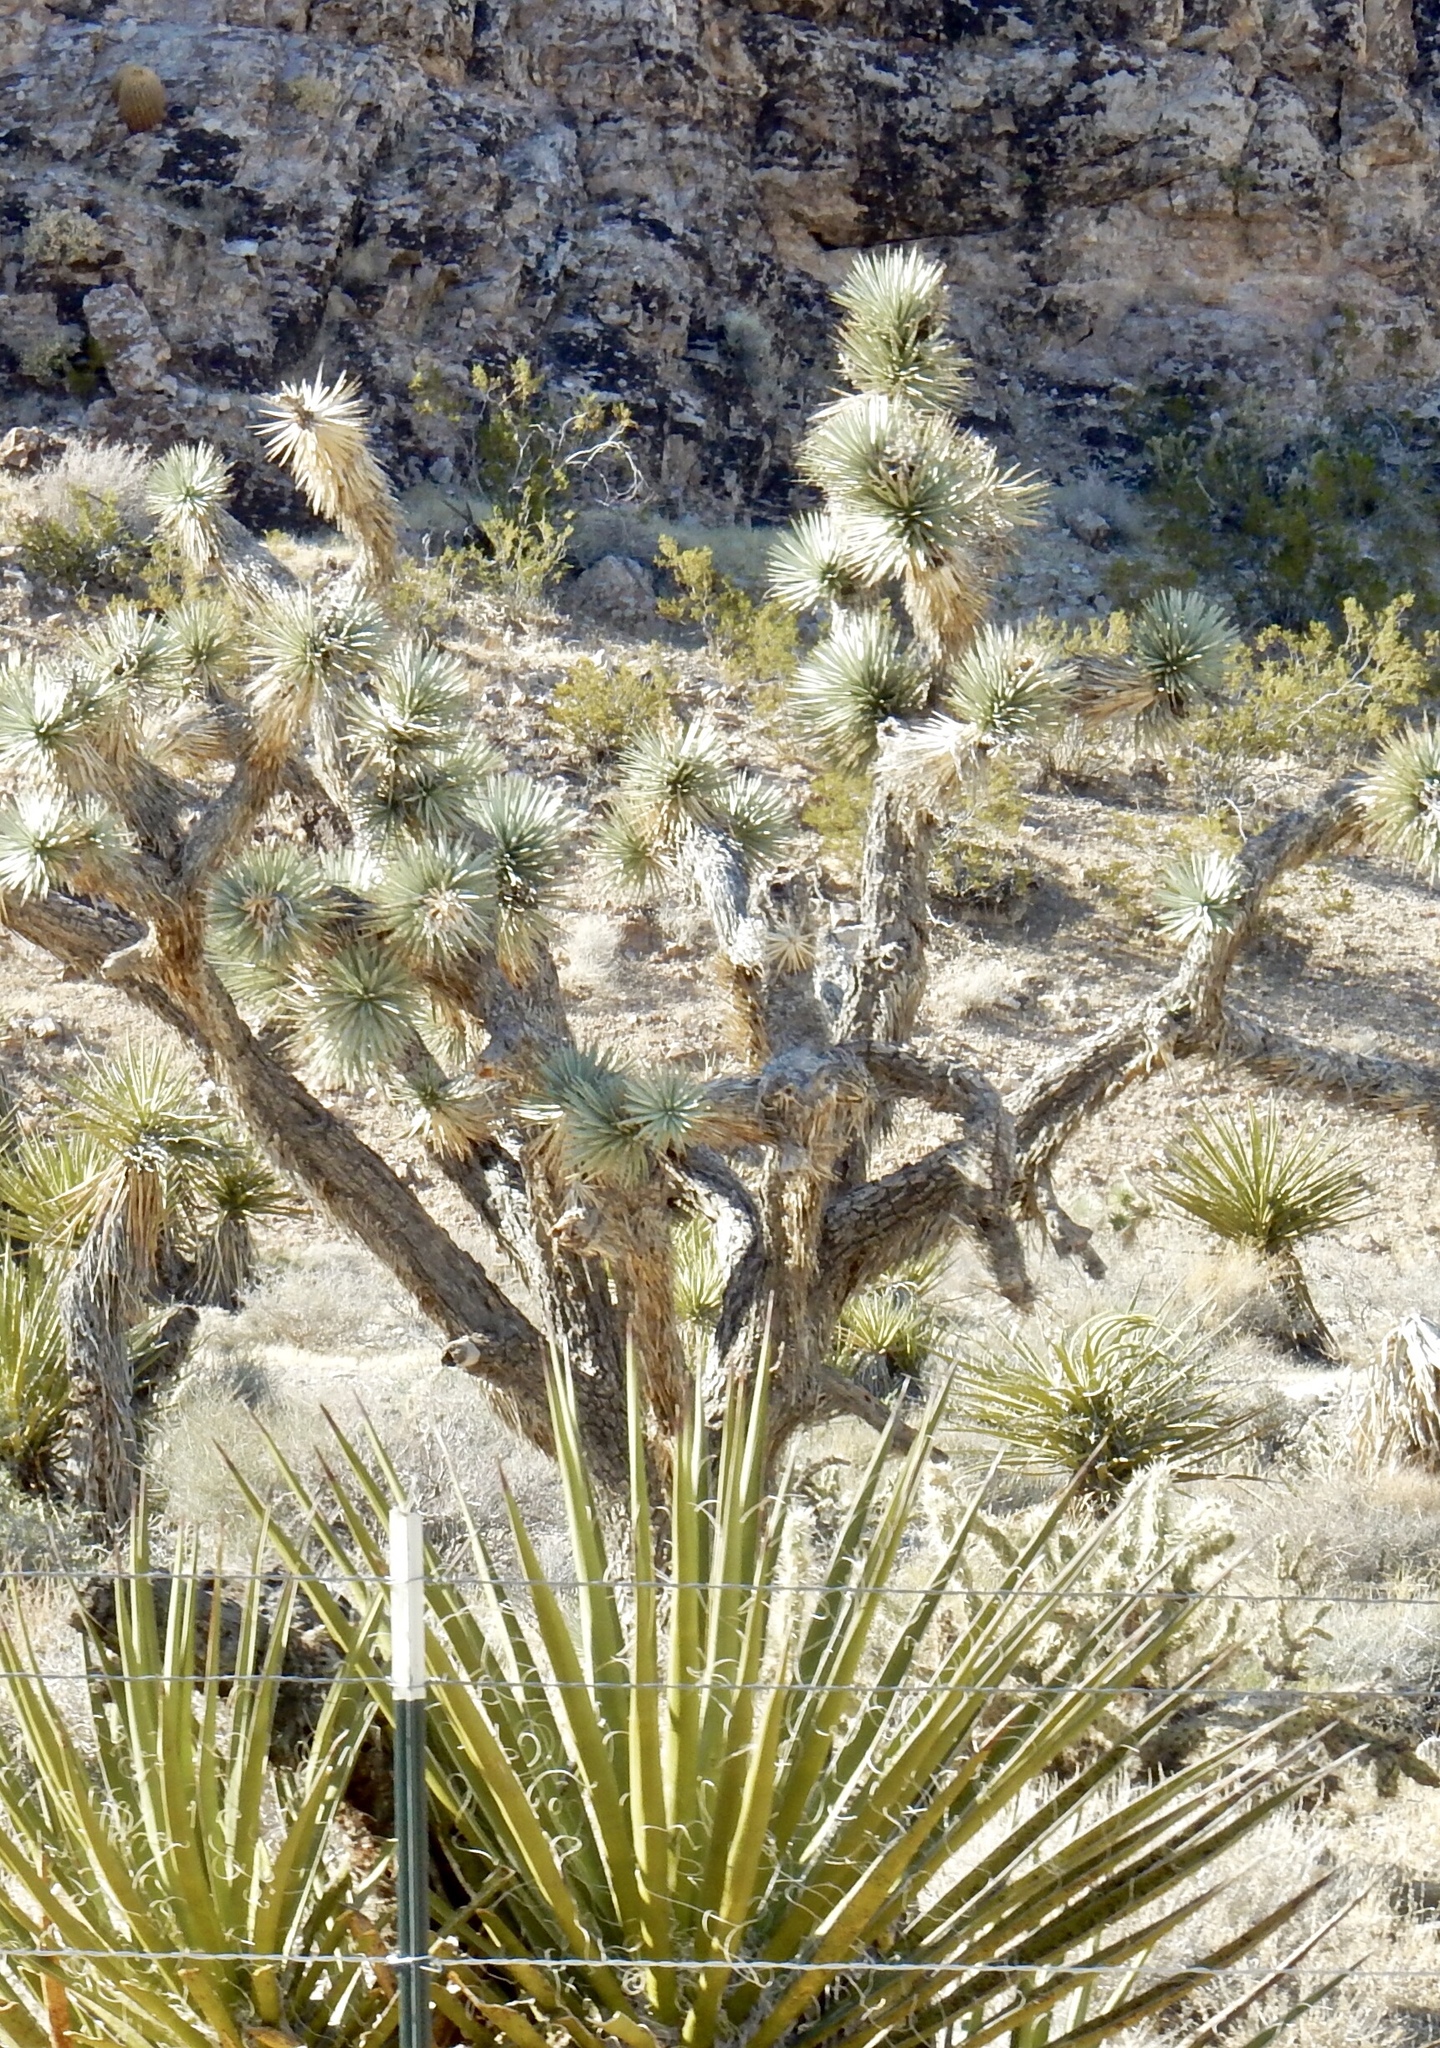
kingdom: Plantae
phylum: Tracheophyta
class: Liliopsida
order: Asparagales
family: Asparagaceae
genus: Yucca
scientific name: Yucca brevifolia
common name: Joshua tree
